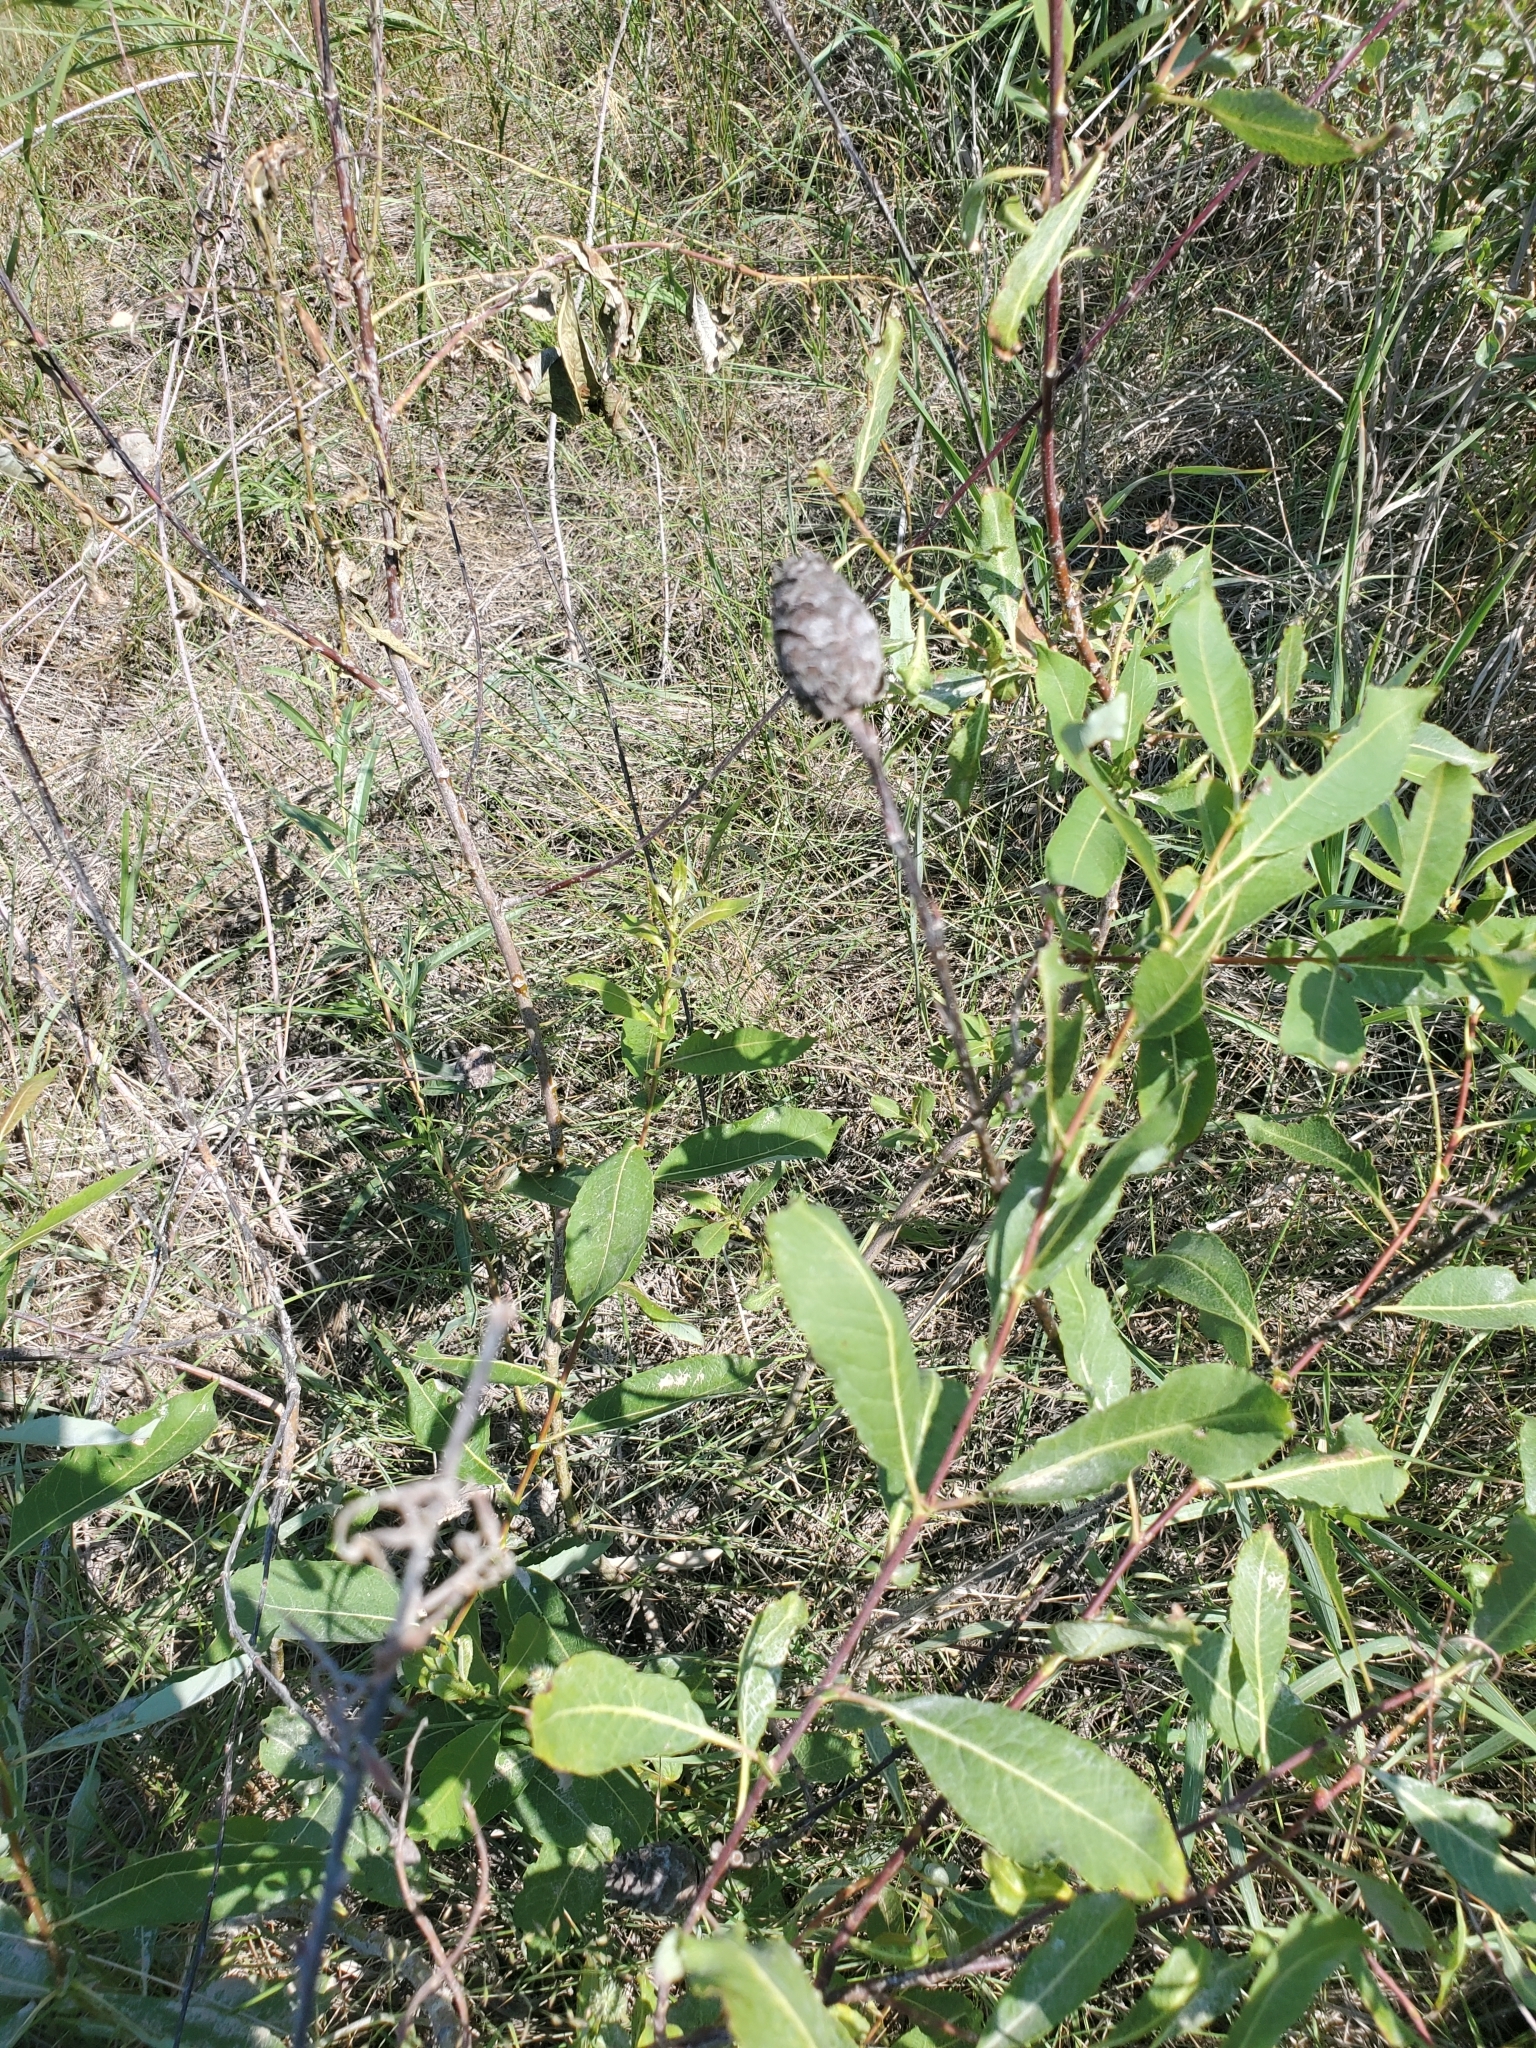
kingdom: Animalia
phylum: Arthropoda
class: Insecta
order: Diptera
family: Cecidomyiidae
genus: Rabdophaga
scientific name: Rabdophaga strobiloides
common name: Willow pinecone gall midge
